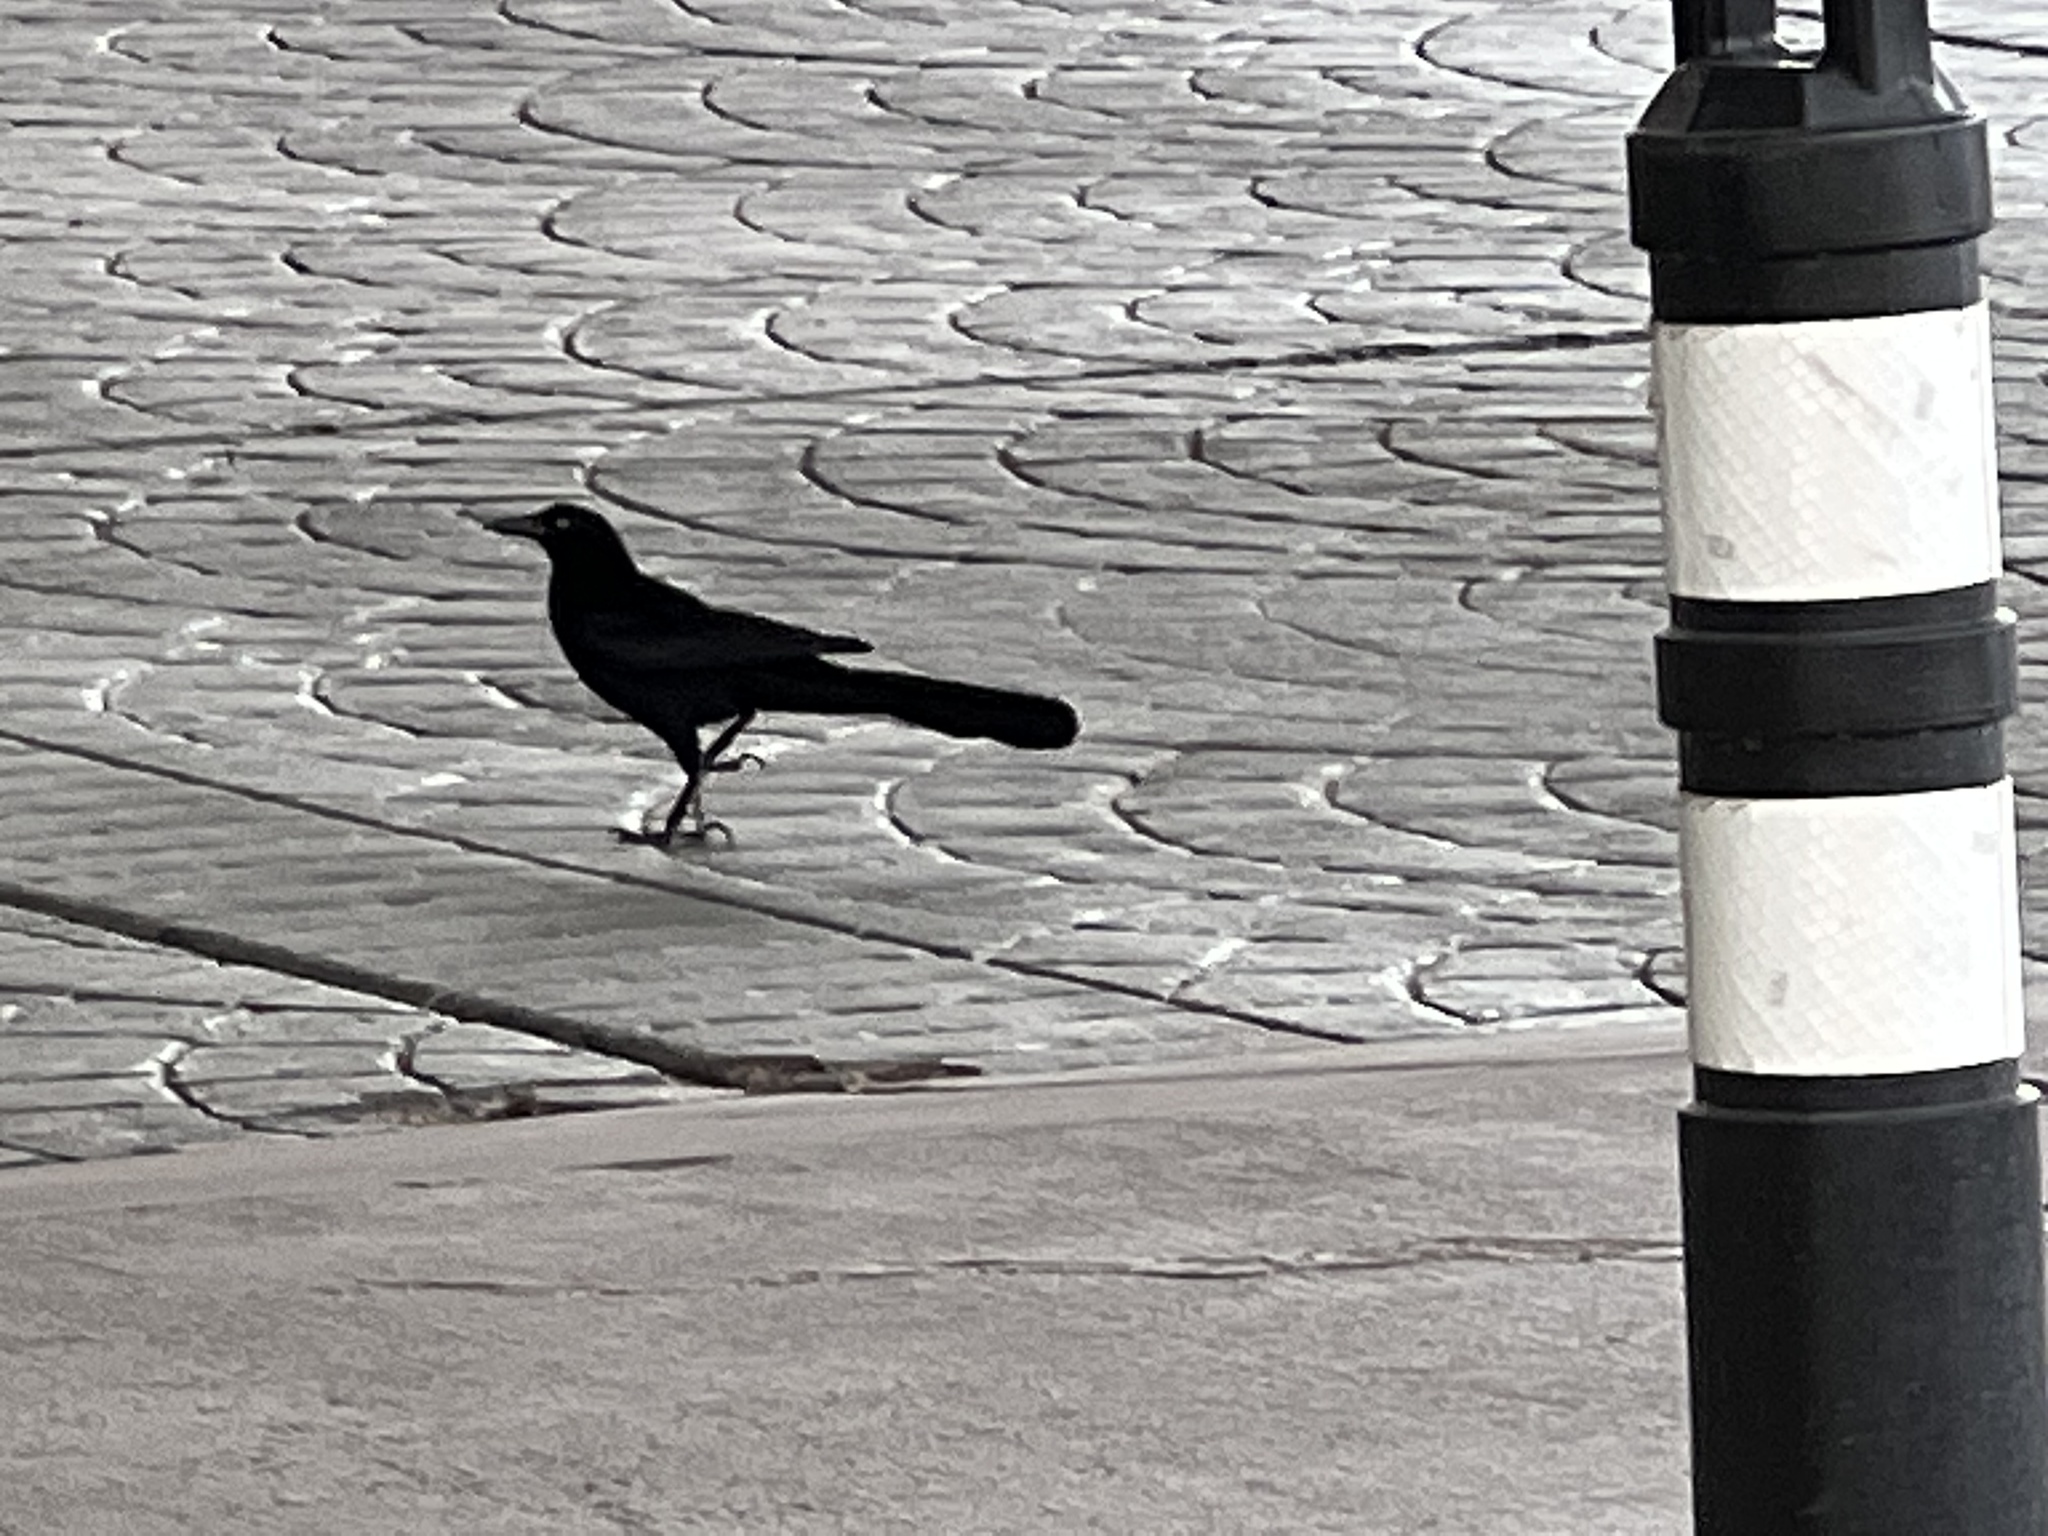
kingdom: Animalia
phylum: Chordata
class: Aves
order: Passeriformes
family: Icteridae
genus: Quiscalus
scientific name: Quiscalus mexicanus
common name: Great-tailed grackle
